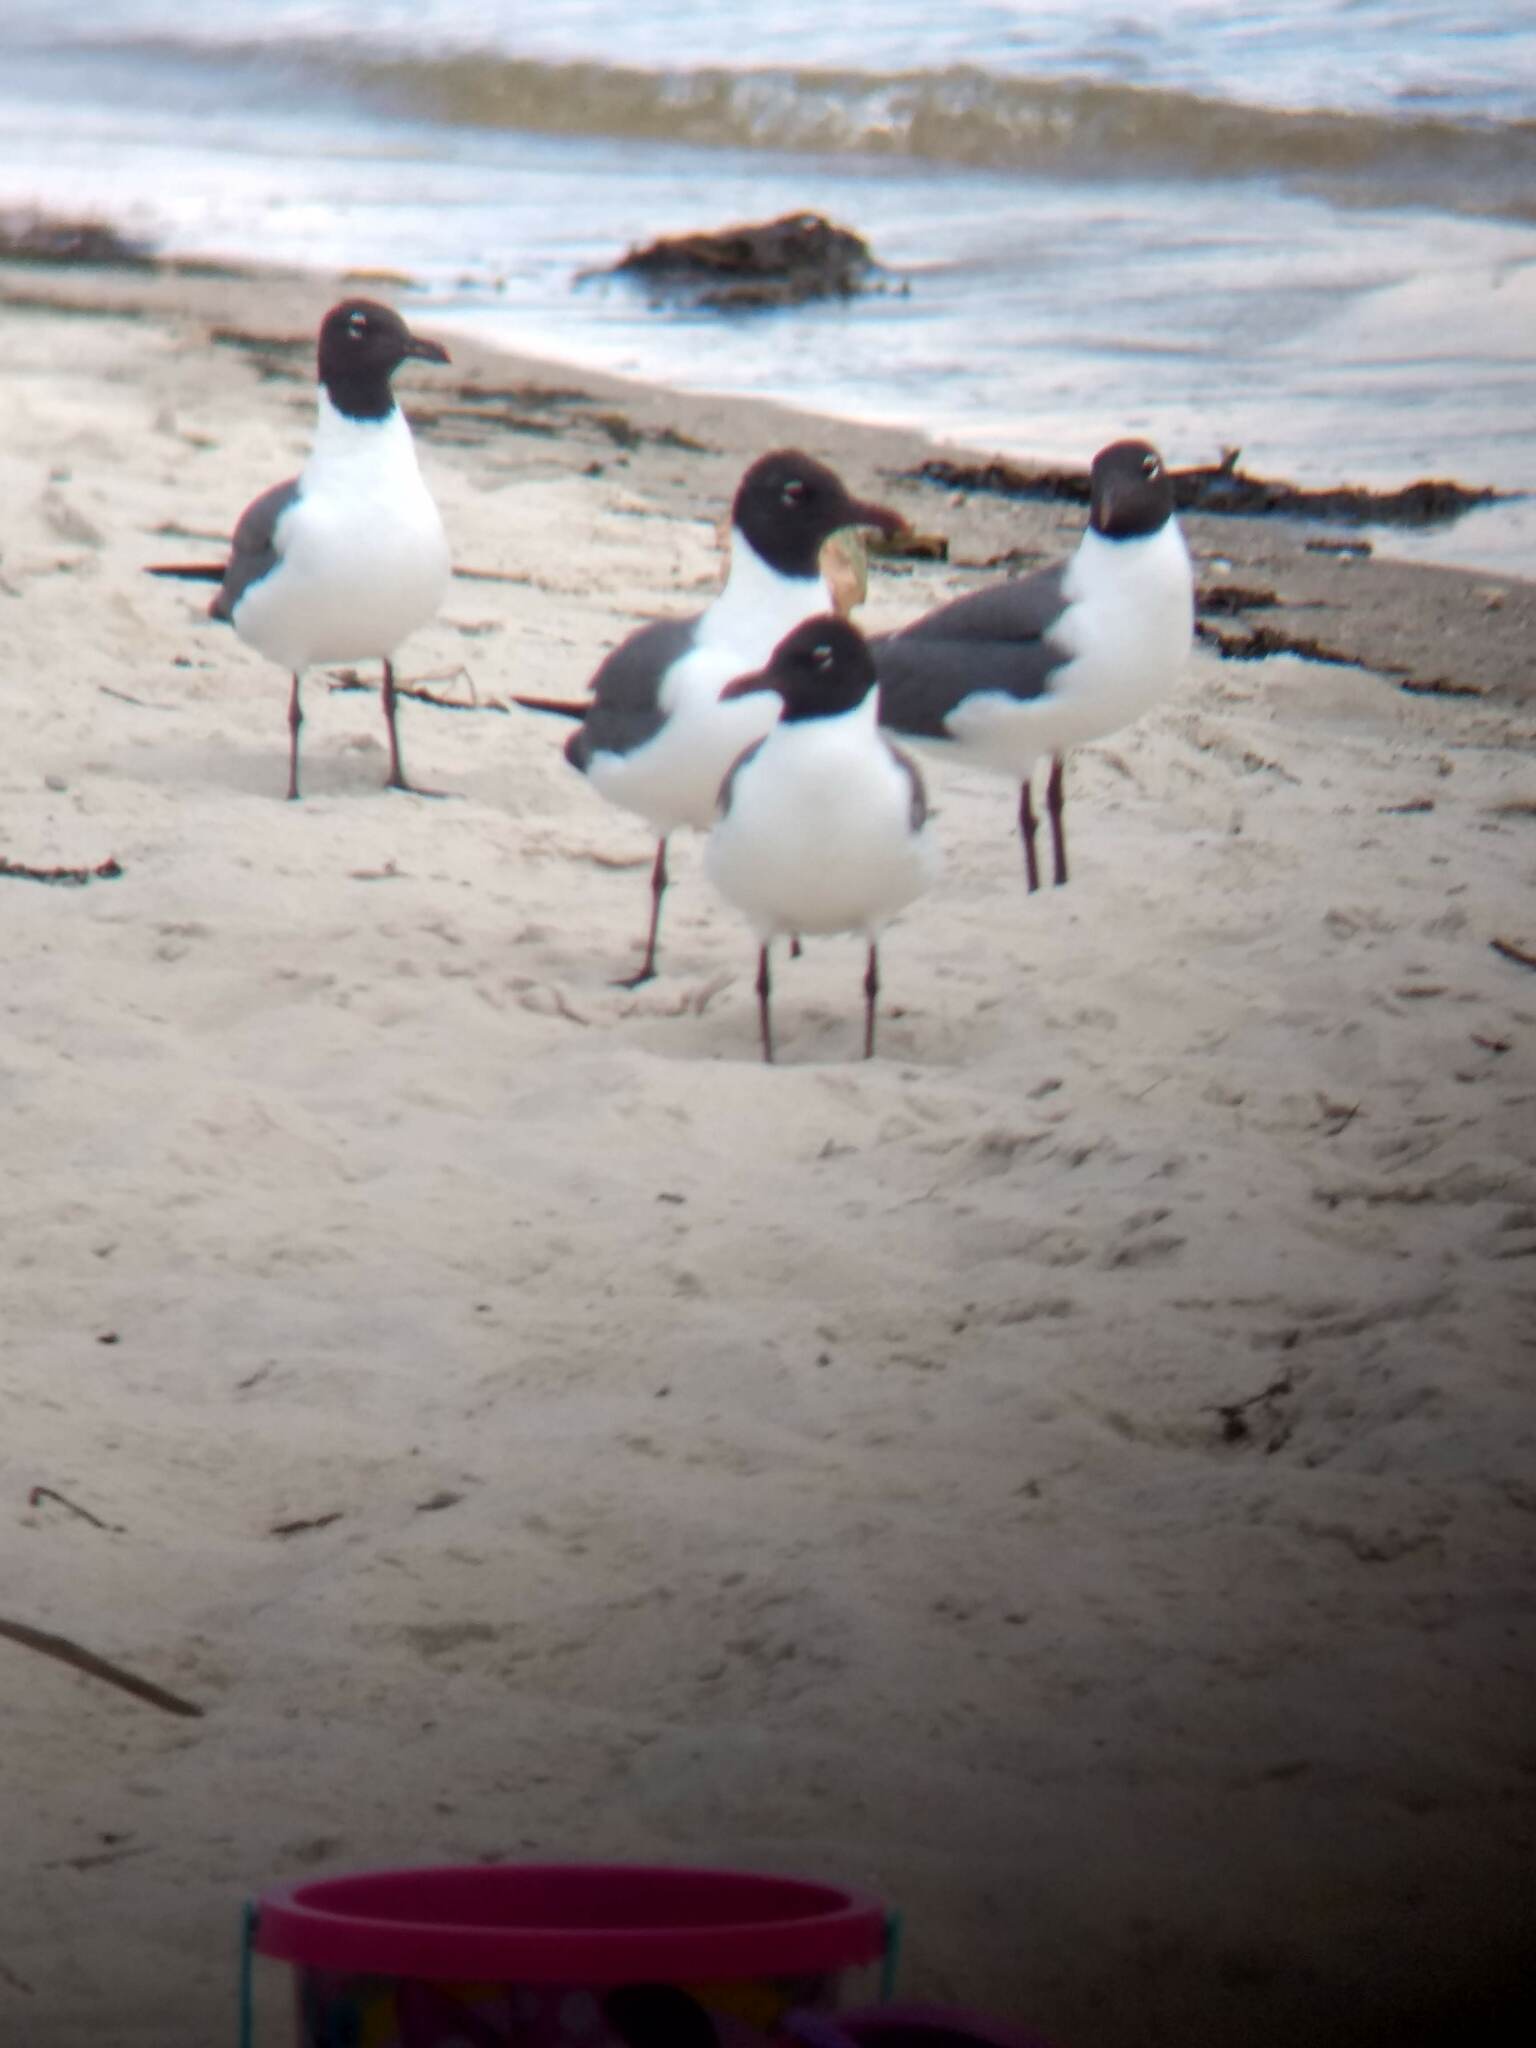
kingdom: Animalia
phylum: Chordata
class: Aves
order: Charadriiformes
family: Laridae
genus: Leucophaeus
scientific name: Leucophaeus atricilla
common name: Laughing gull
